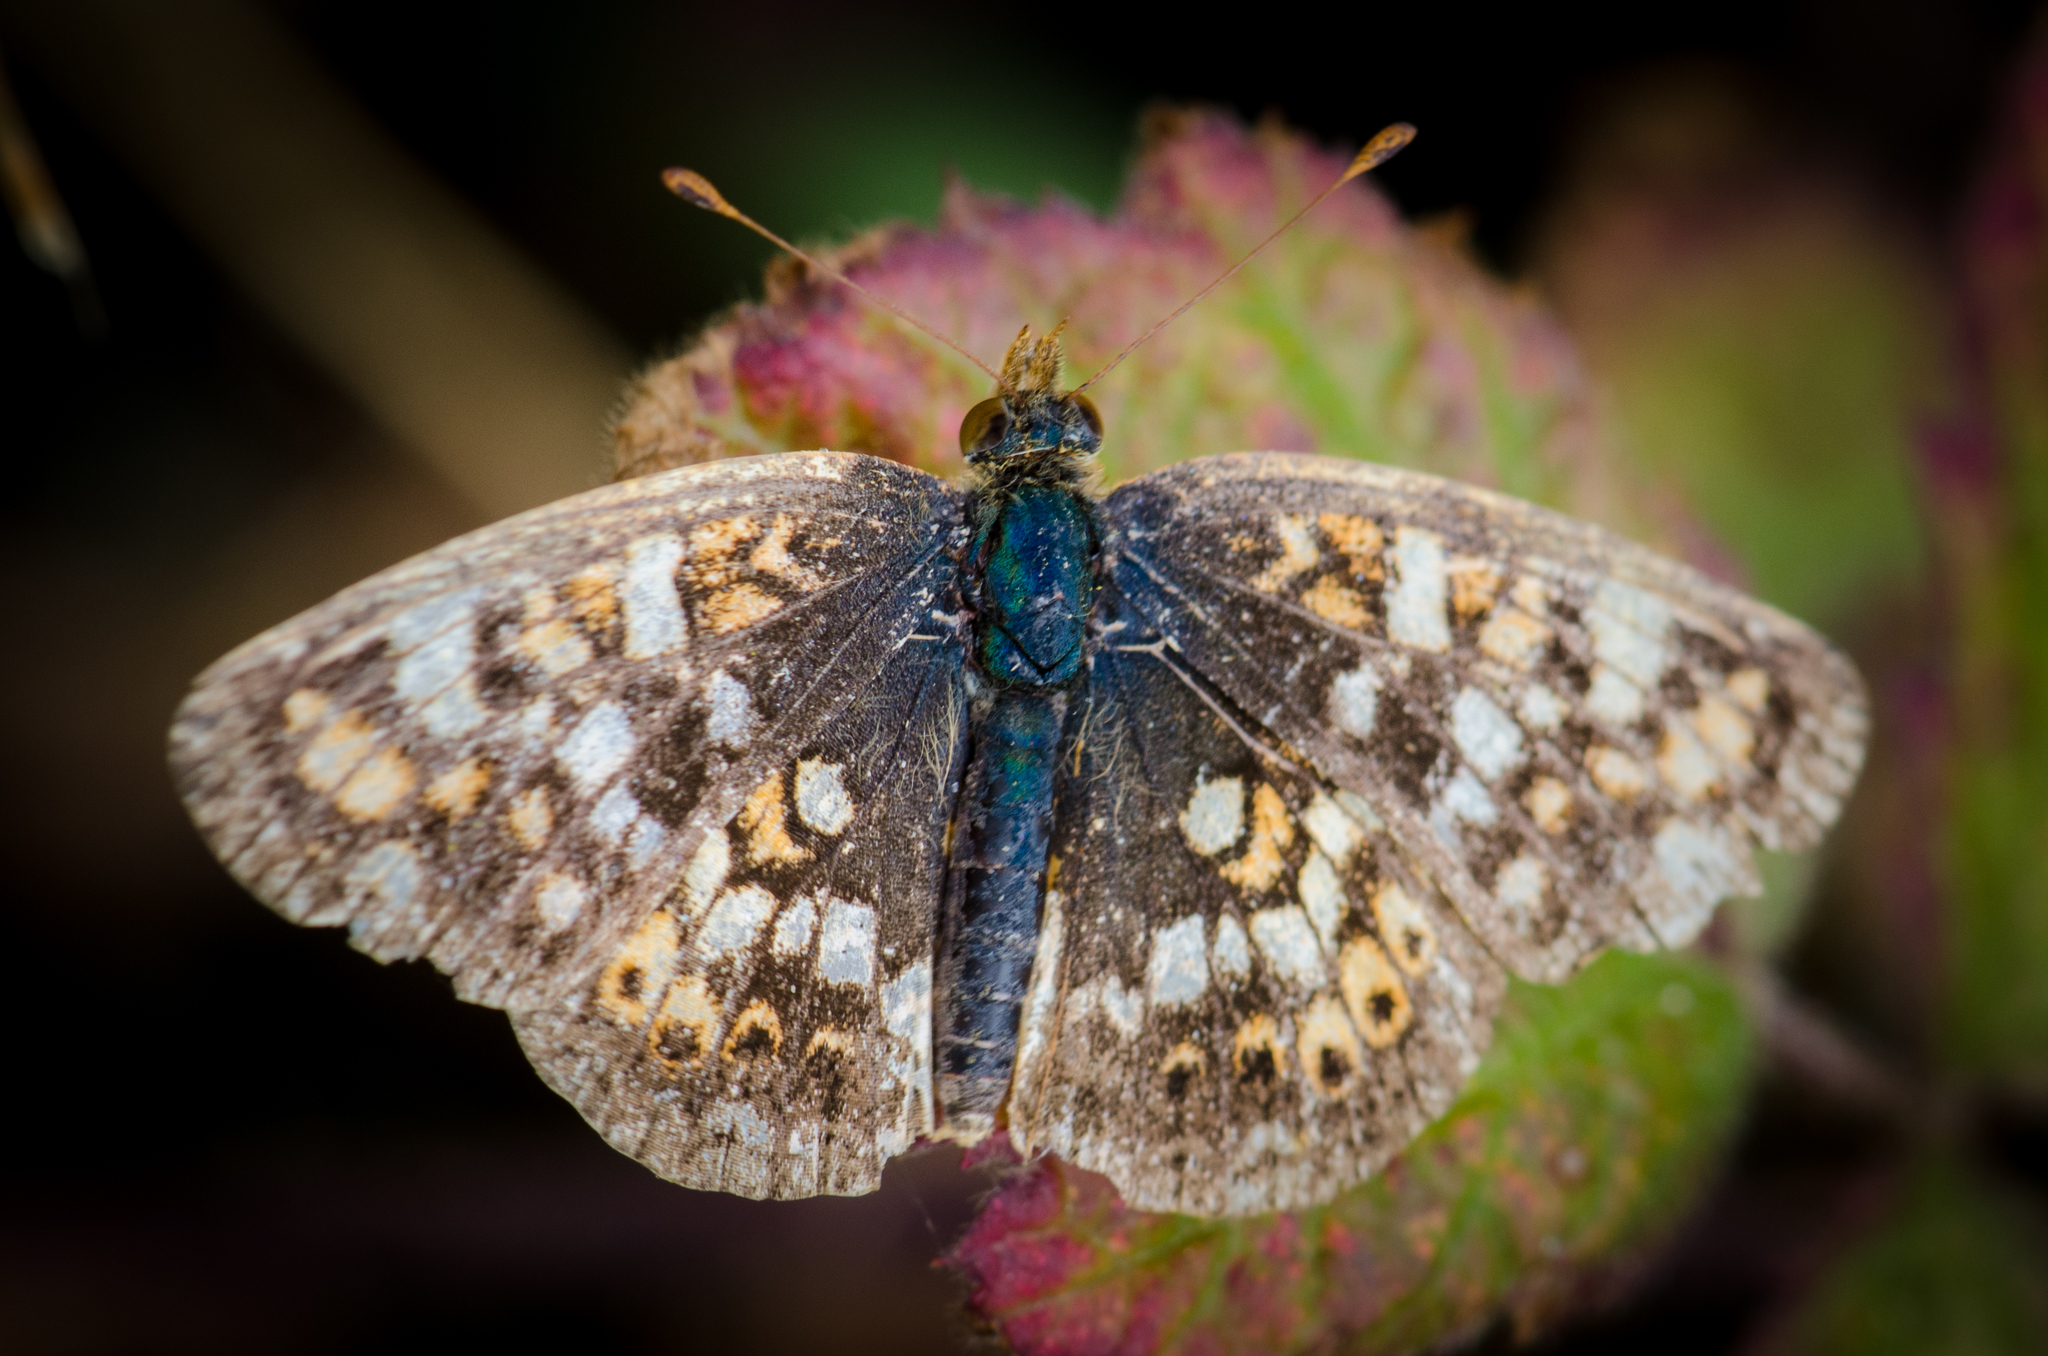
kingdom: Animalia
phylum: Arthropoda
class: Insecta
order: Lepidoptera
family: Nymphalidae
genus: Phyciodes
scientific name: Phyciodes tharos
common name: Pearl crescent
